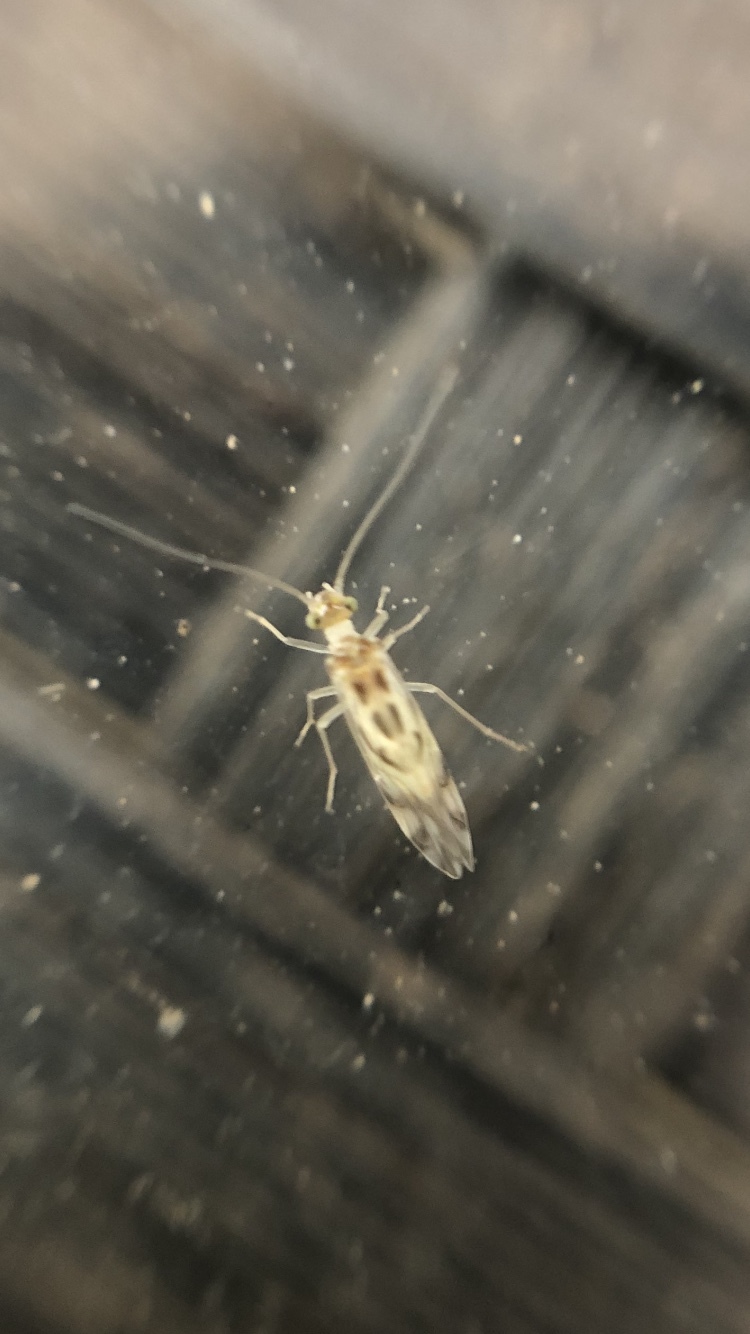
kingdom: Animalia
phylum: Arthropoda
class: Insecta
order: Psocodea
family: Stenopsocidae
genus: Graphopsocus
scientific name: Graphopsocus cruciatus
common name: Lizard bark louse
